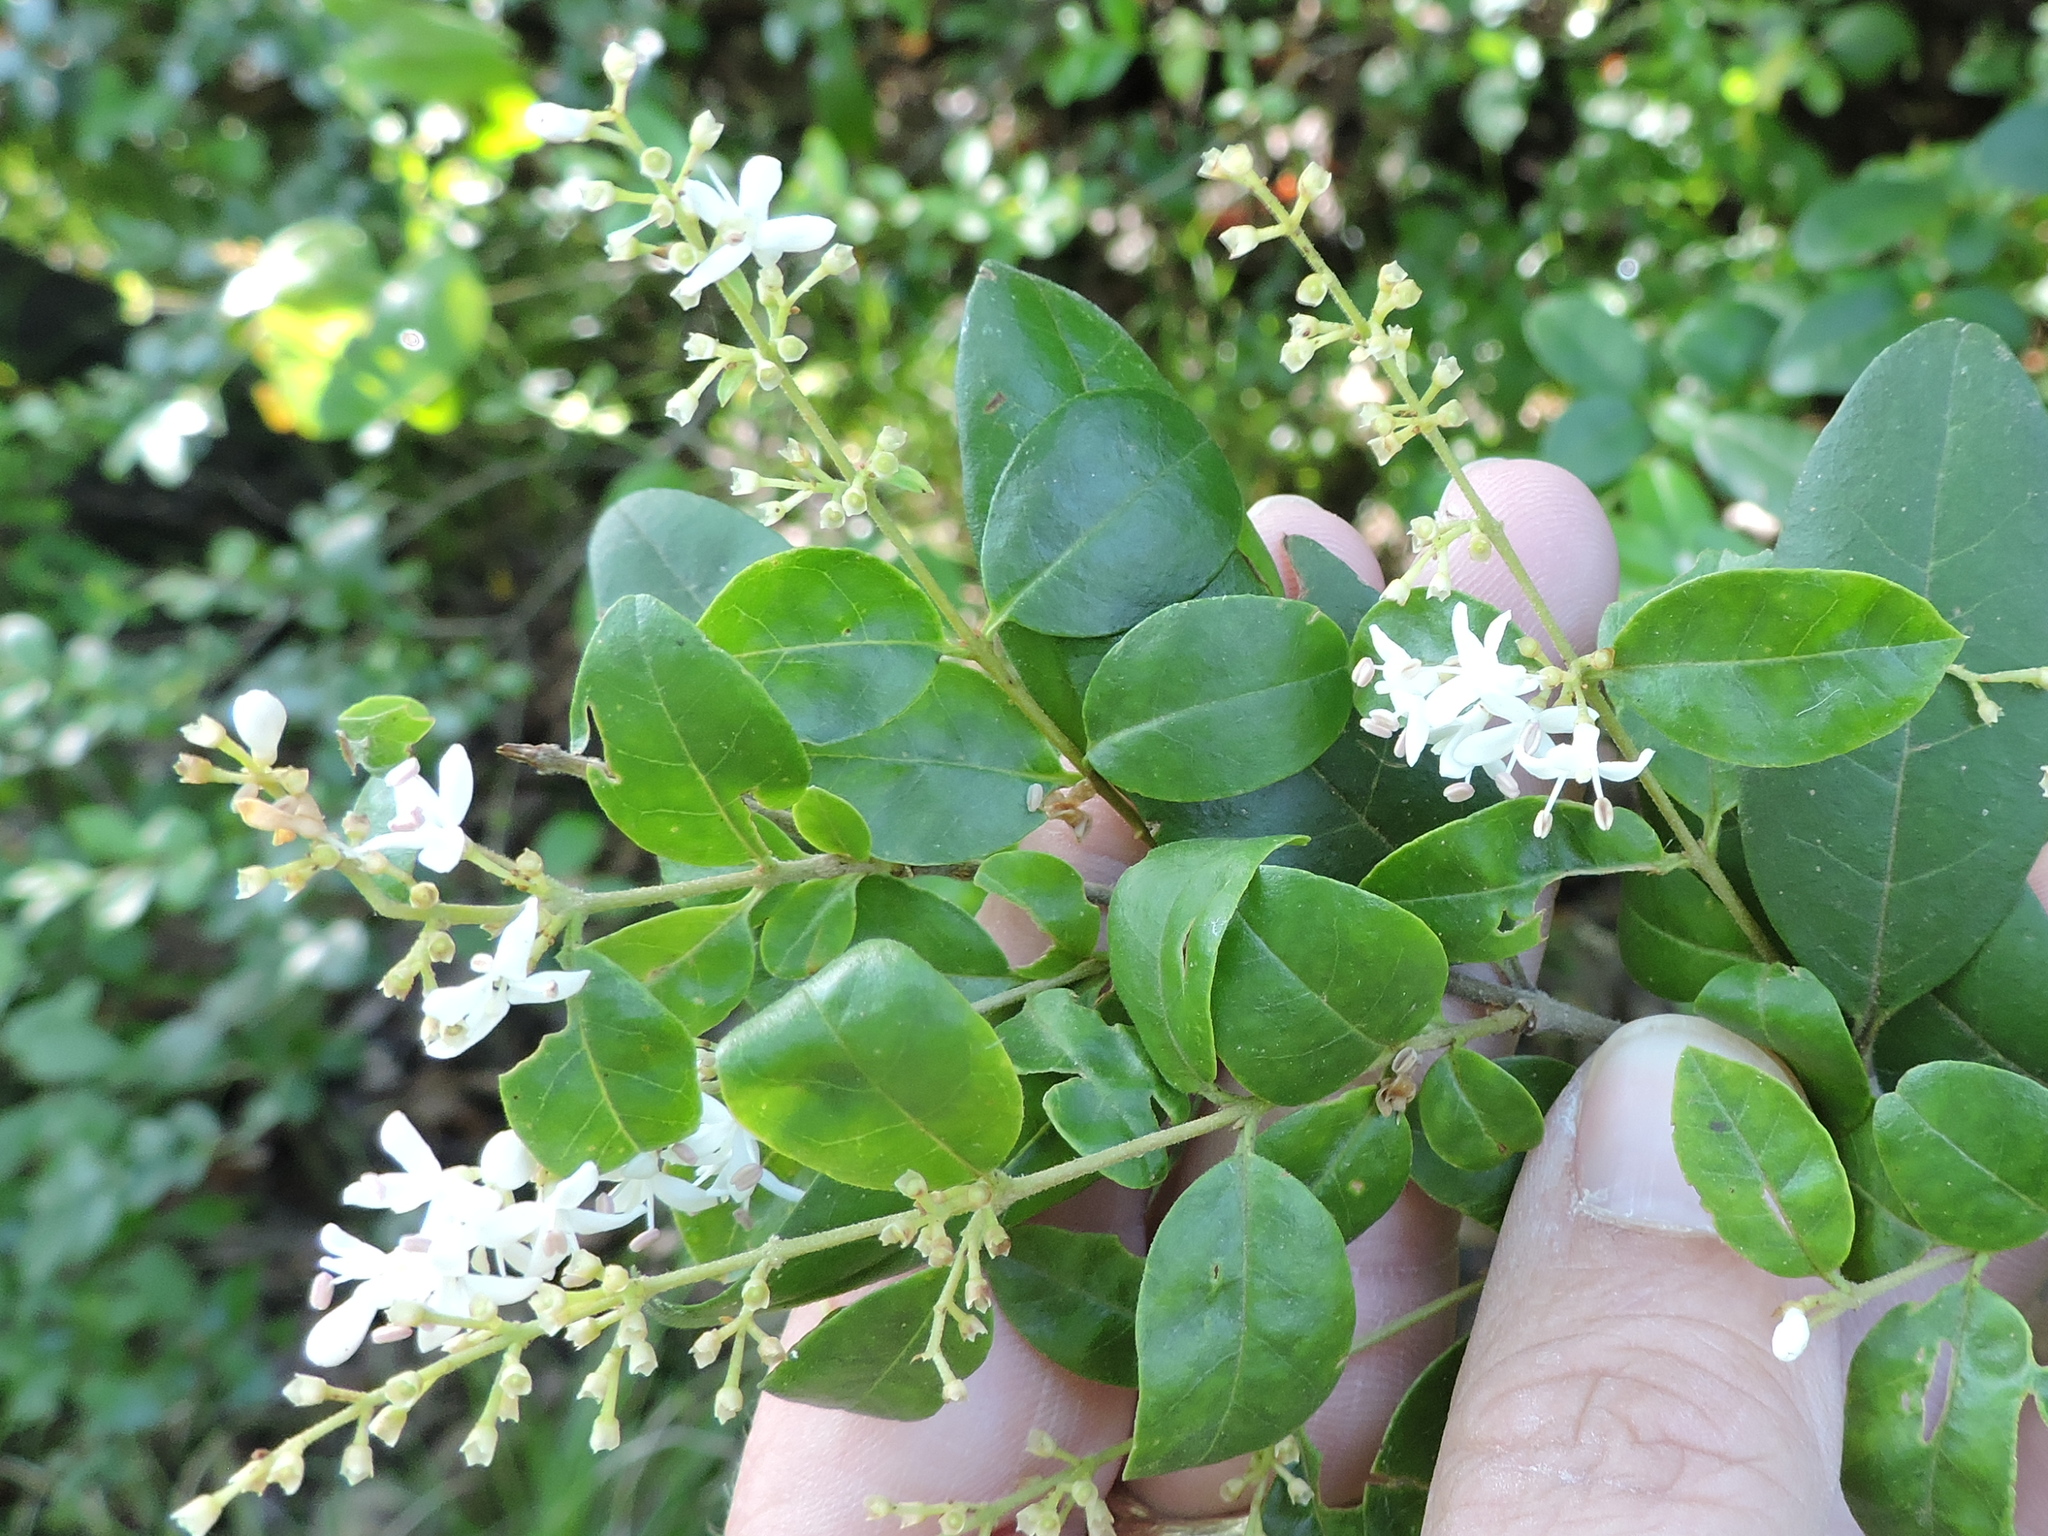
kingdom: Plantae
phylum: Tracheophyta
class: Magnoliopsida
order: Lamiales
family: Oleaceae
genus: Ligustrum
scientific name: Ligustrum sinense
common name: Chinese privet
